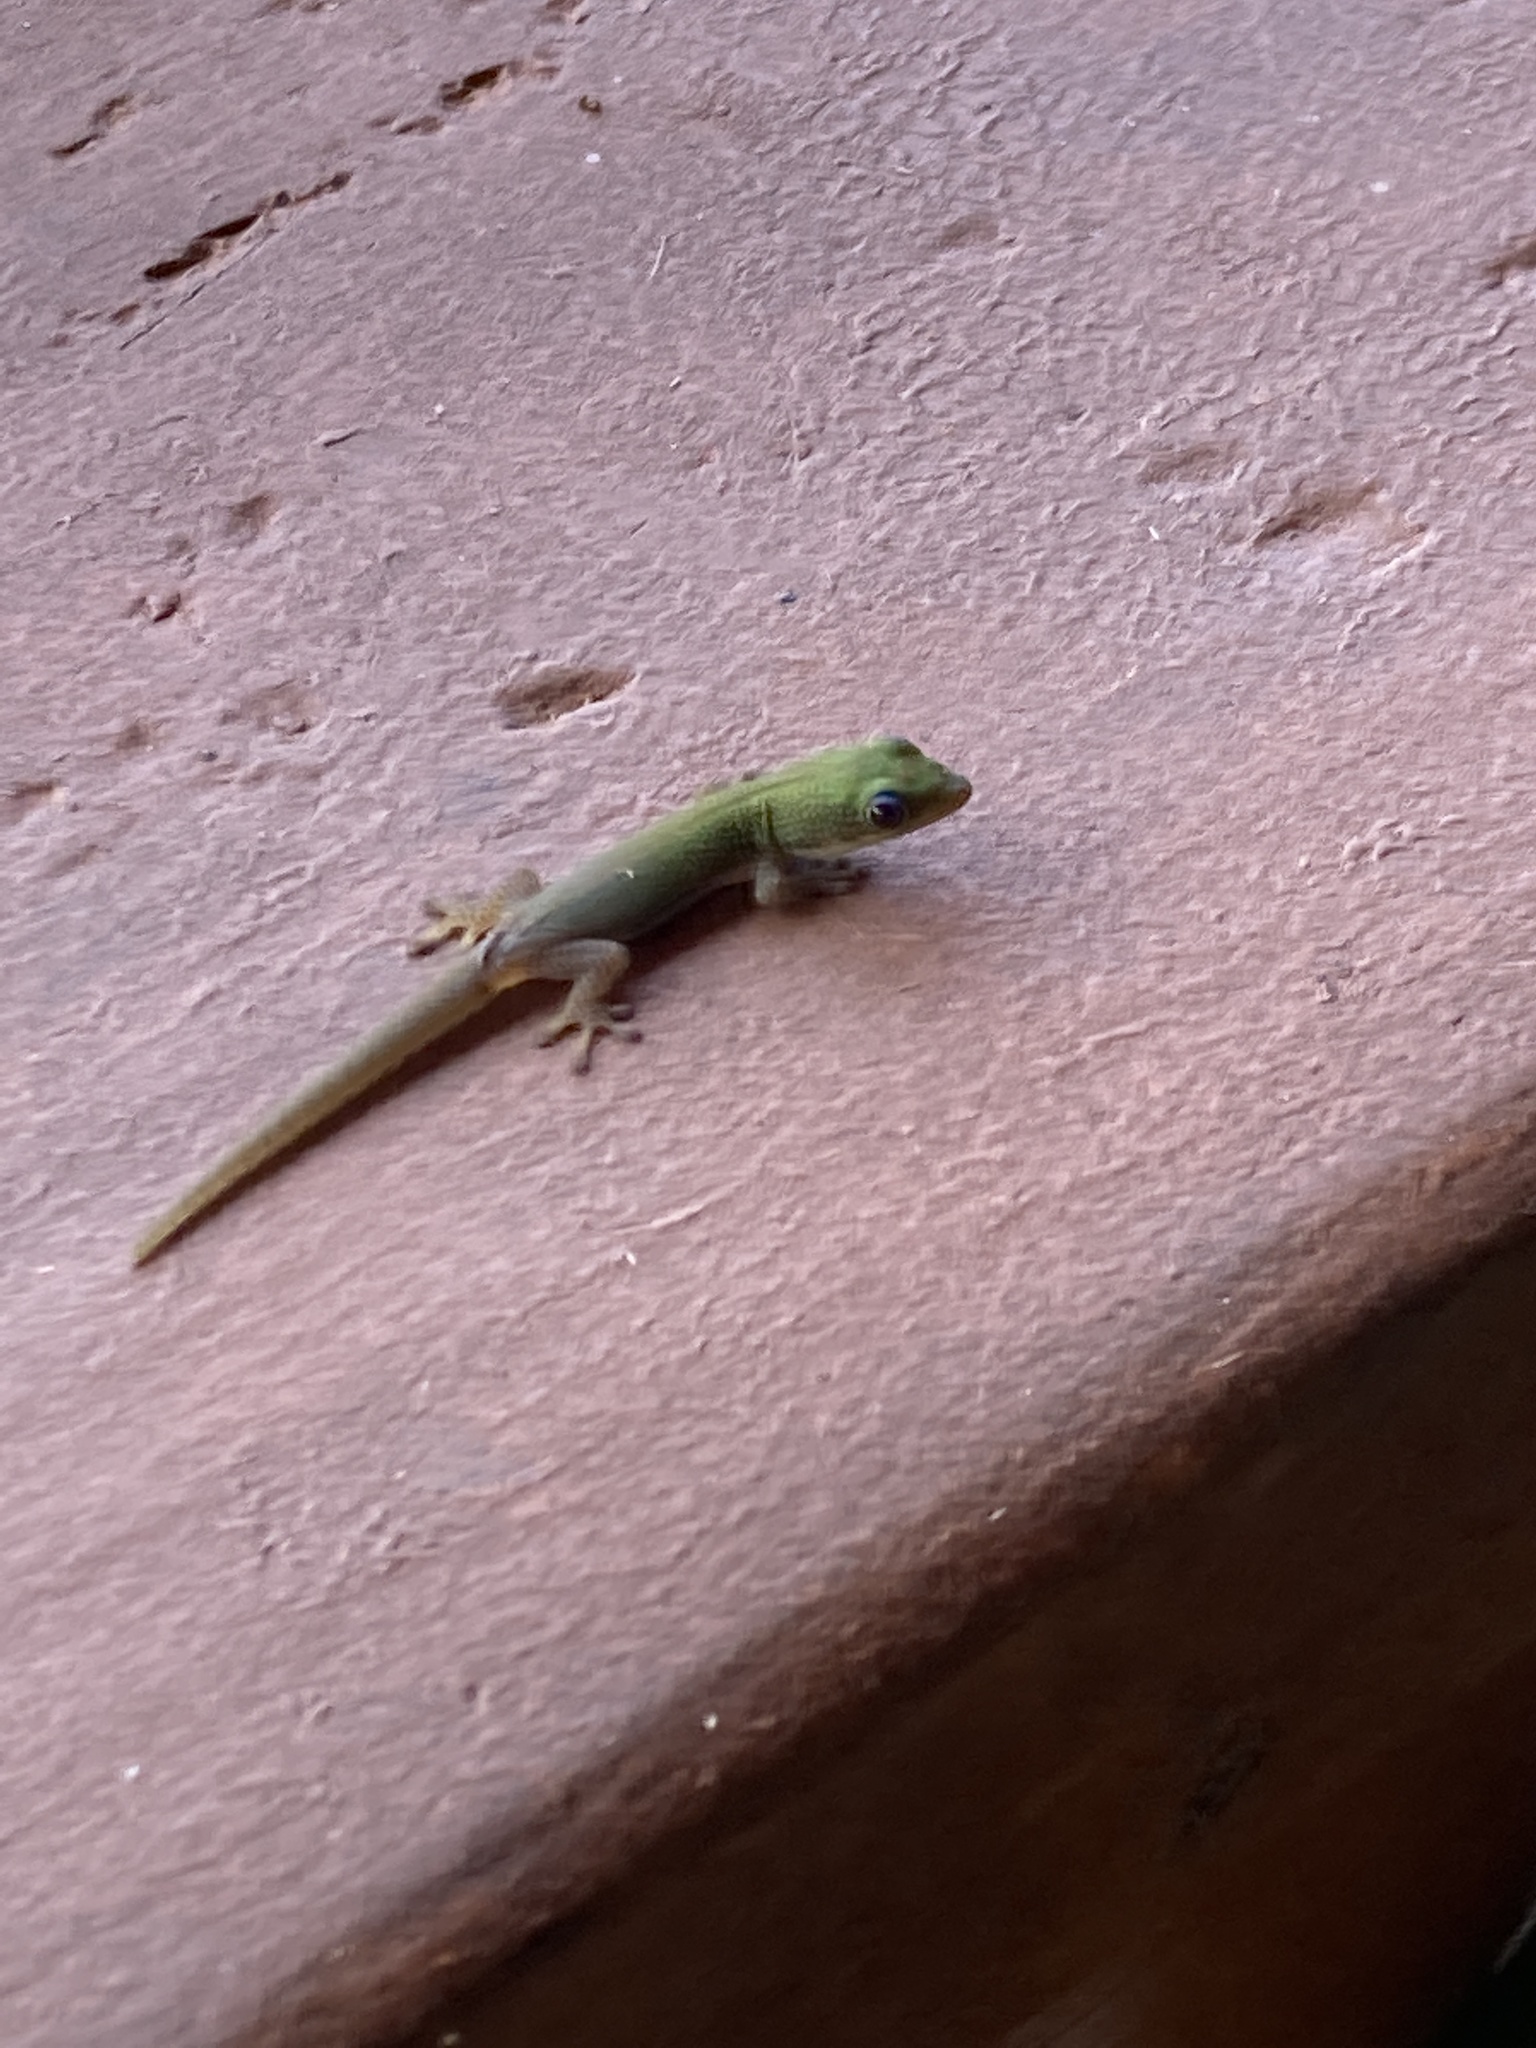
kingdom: Animalia
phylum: Chordata
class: Squamata
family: Gekkonidae
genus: Phelsuma
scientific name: Phelsuma laticauda
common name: Gold dust day gecko
